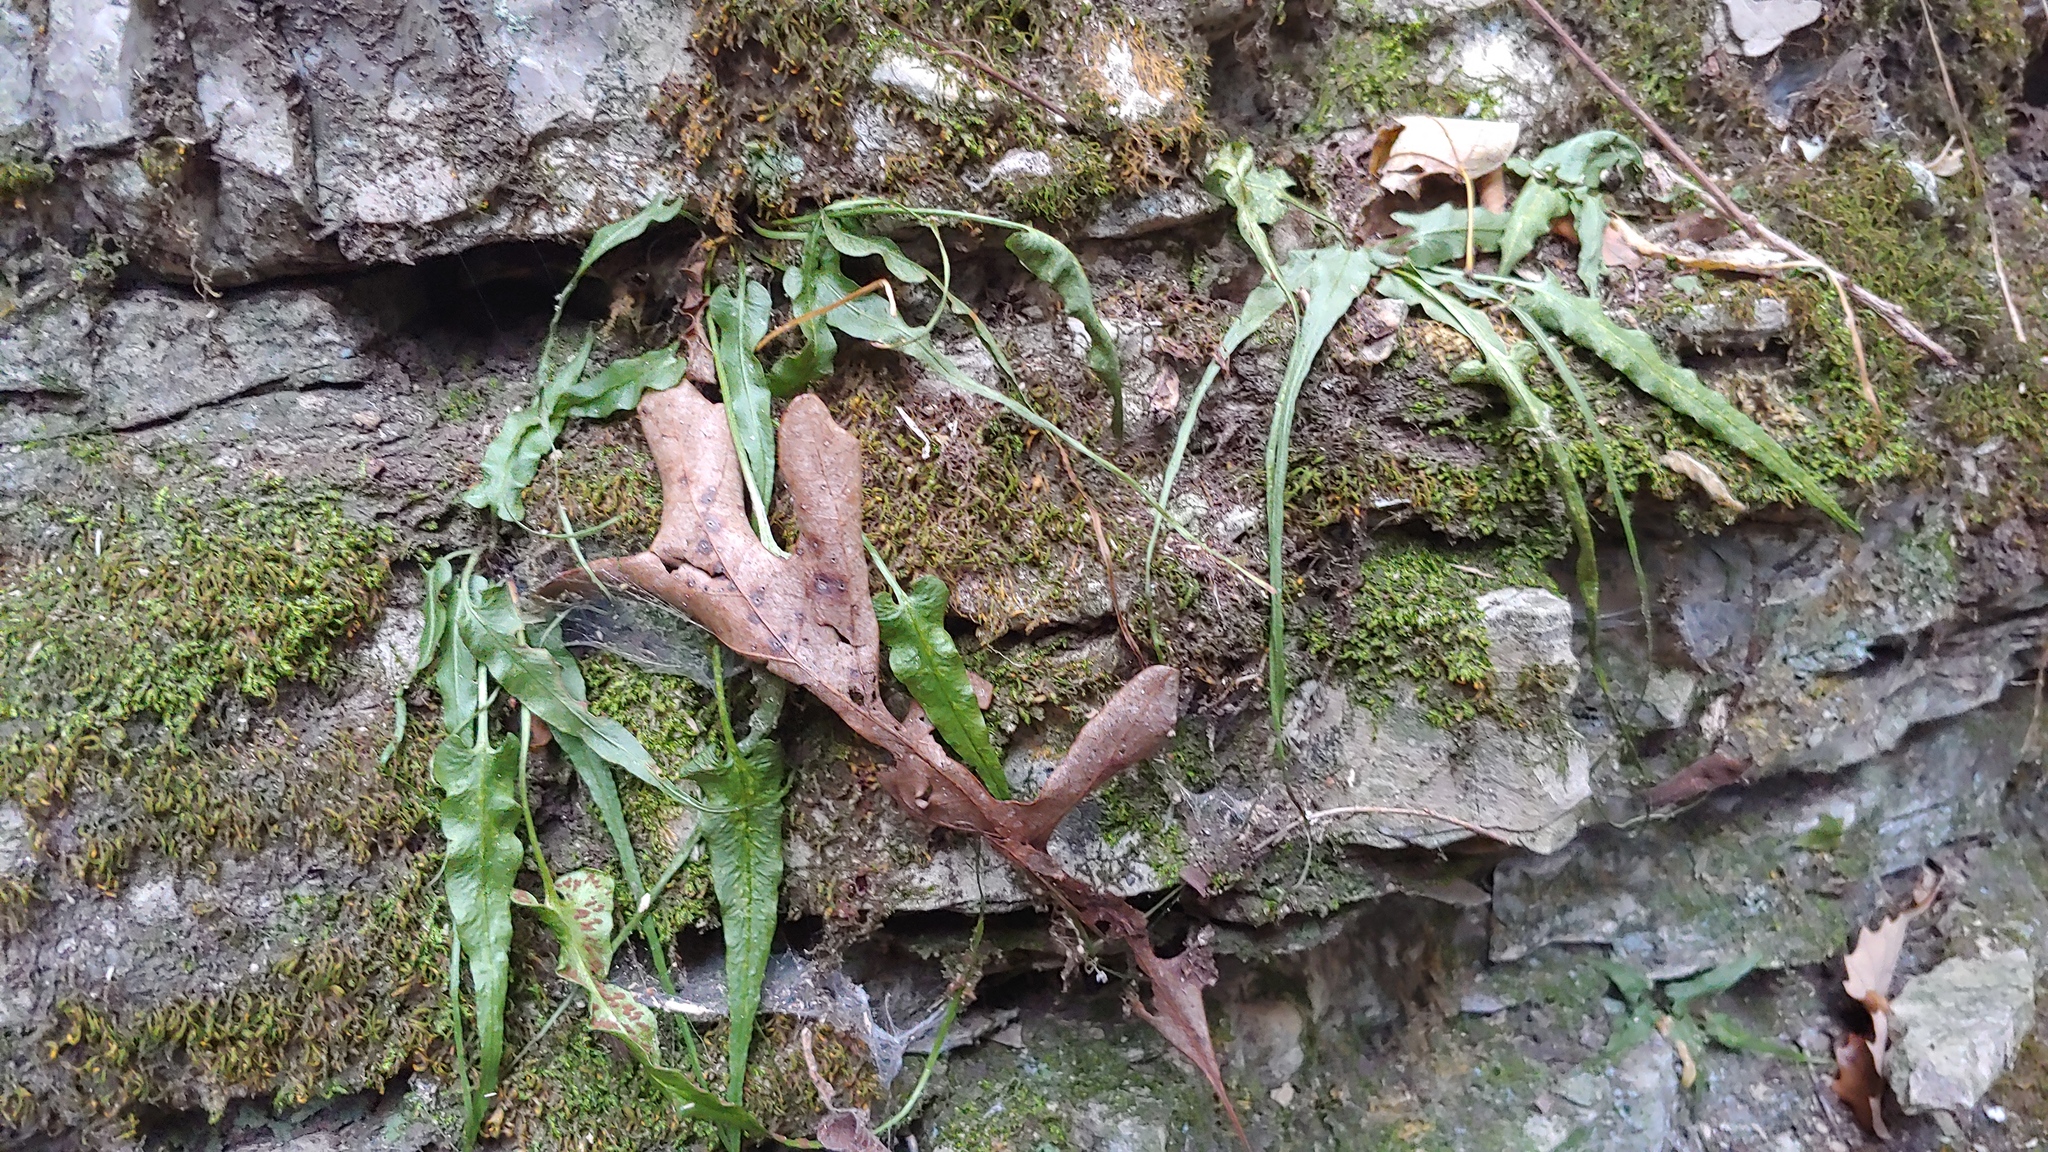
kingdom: Plantae
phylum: Tracheophyta
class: Polypodiopsida
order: Polypodiales
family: Aspleniaceae
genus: Asplenium
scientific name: Asplenium rhizophyllum
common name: Walking fern
